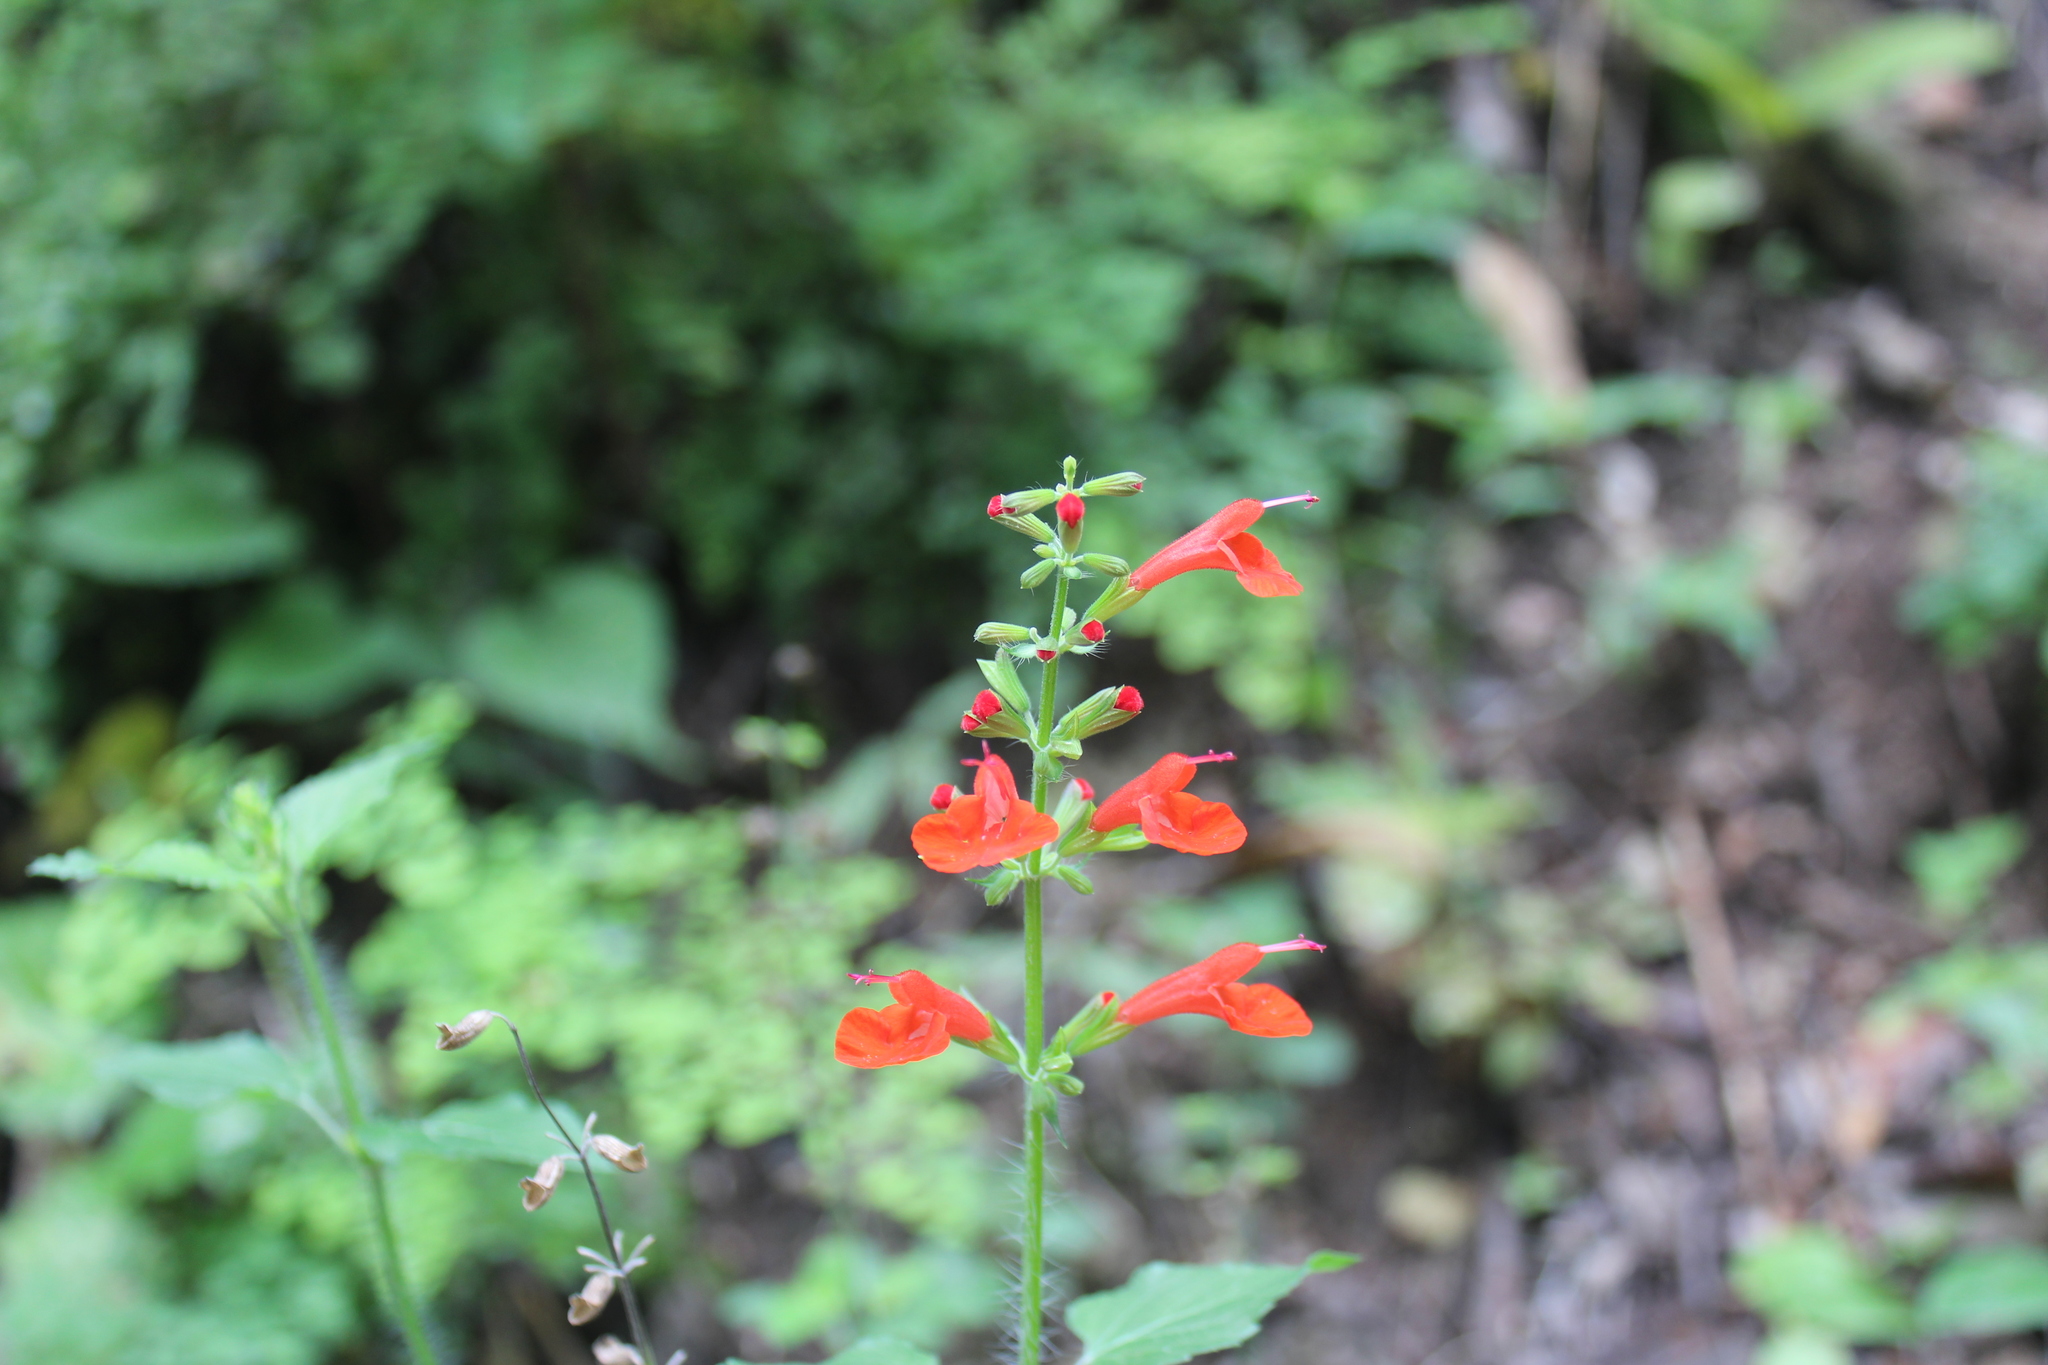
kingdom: Plantae
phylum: Tracheophyta
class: Magnoliopsida
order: Lamiales
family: Lamiaceae
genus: Salvia
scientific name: Salvia coccinea
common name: Blood sage
